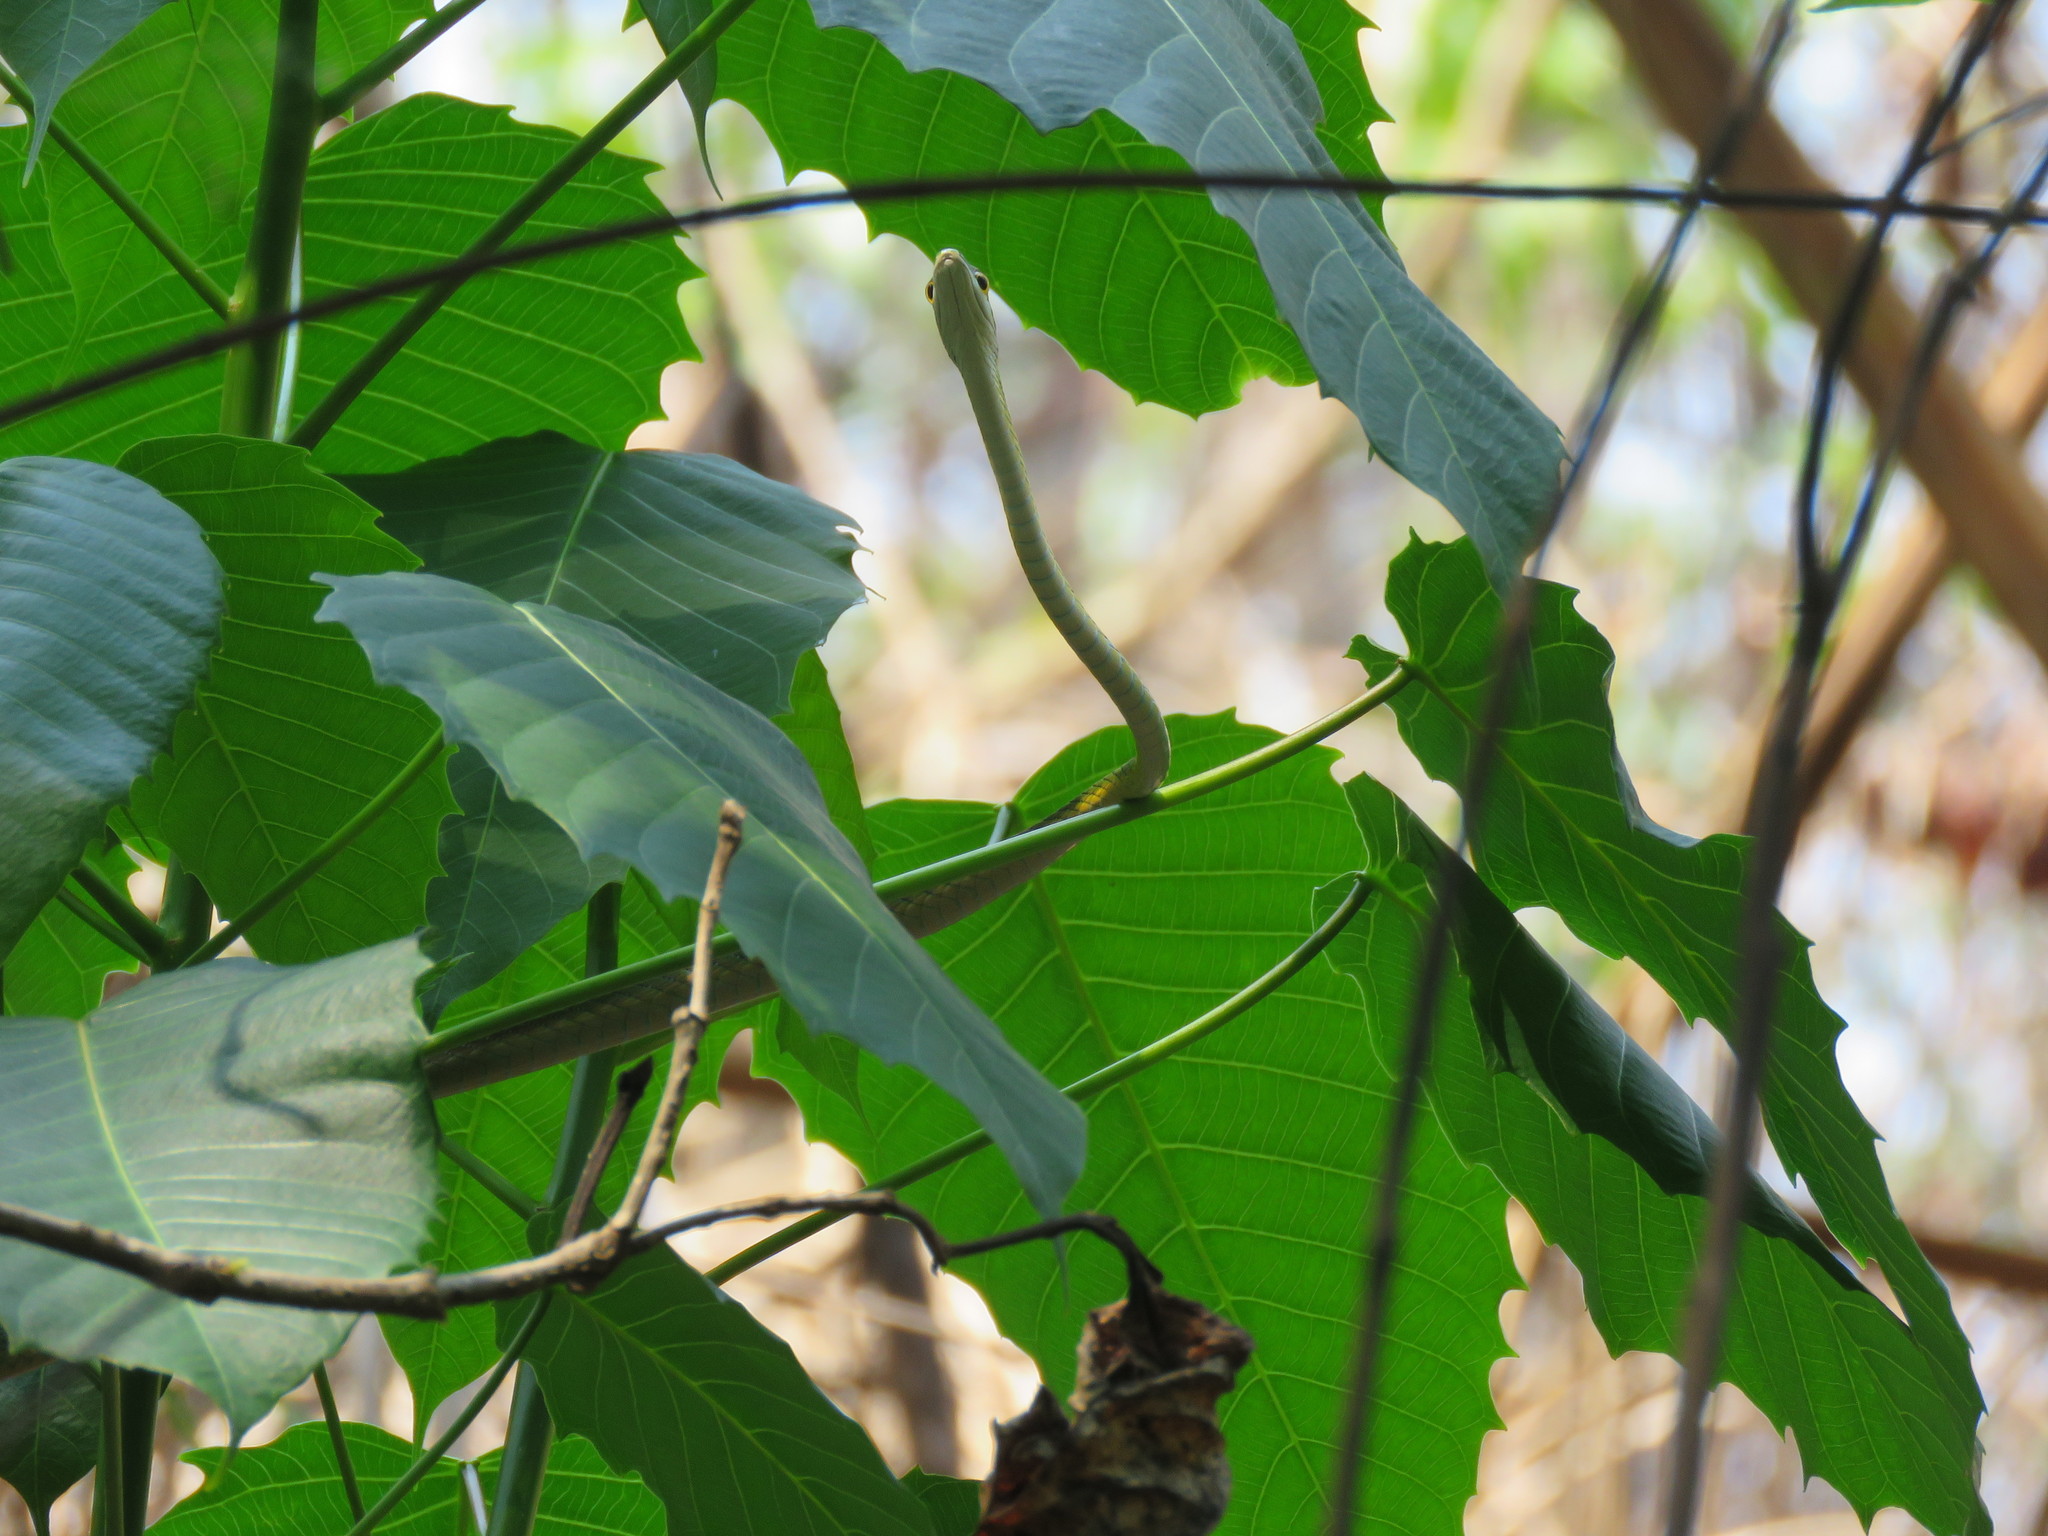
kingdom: Animalia
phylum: Chordata
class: Squamata
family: Colubridae
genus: Leptophis
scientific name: Leptophis ahaetulla
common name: Parrot snake
